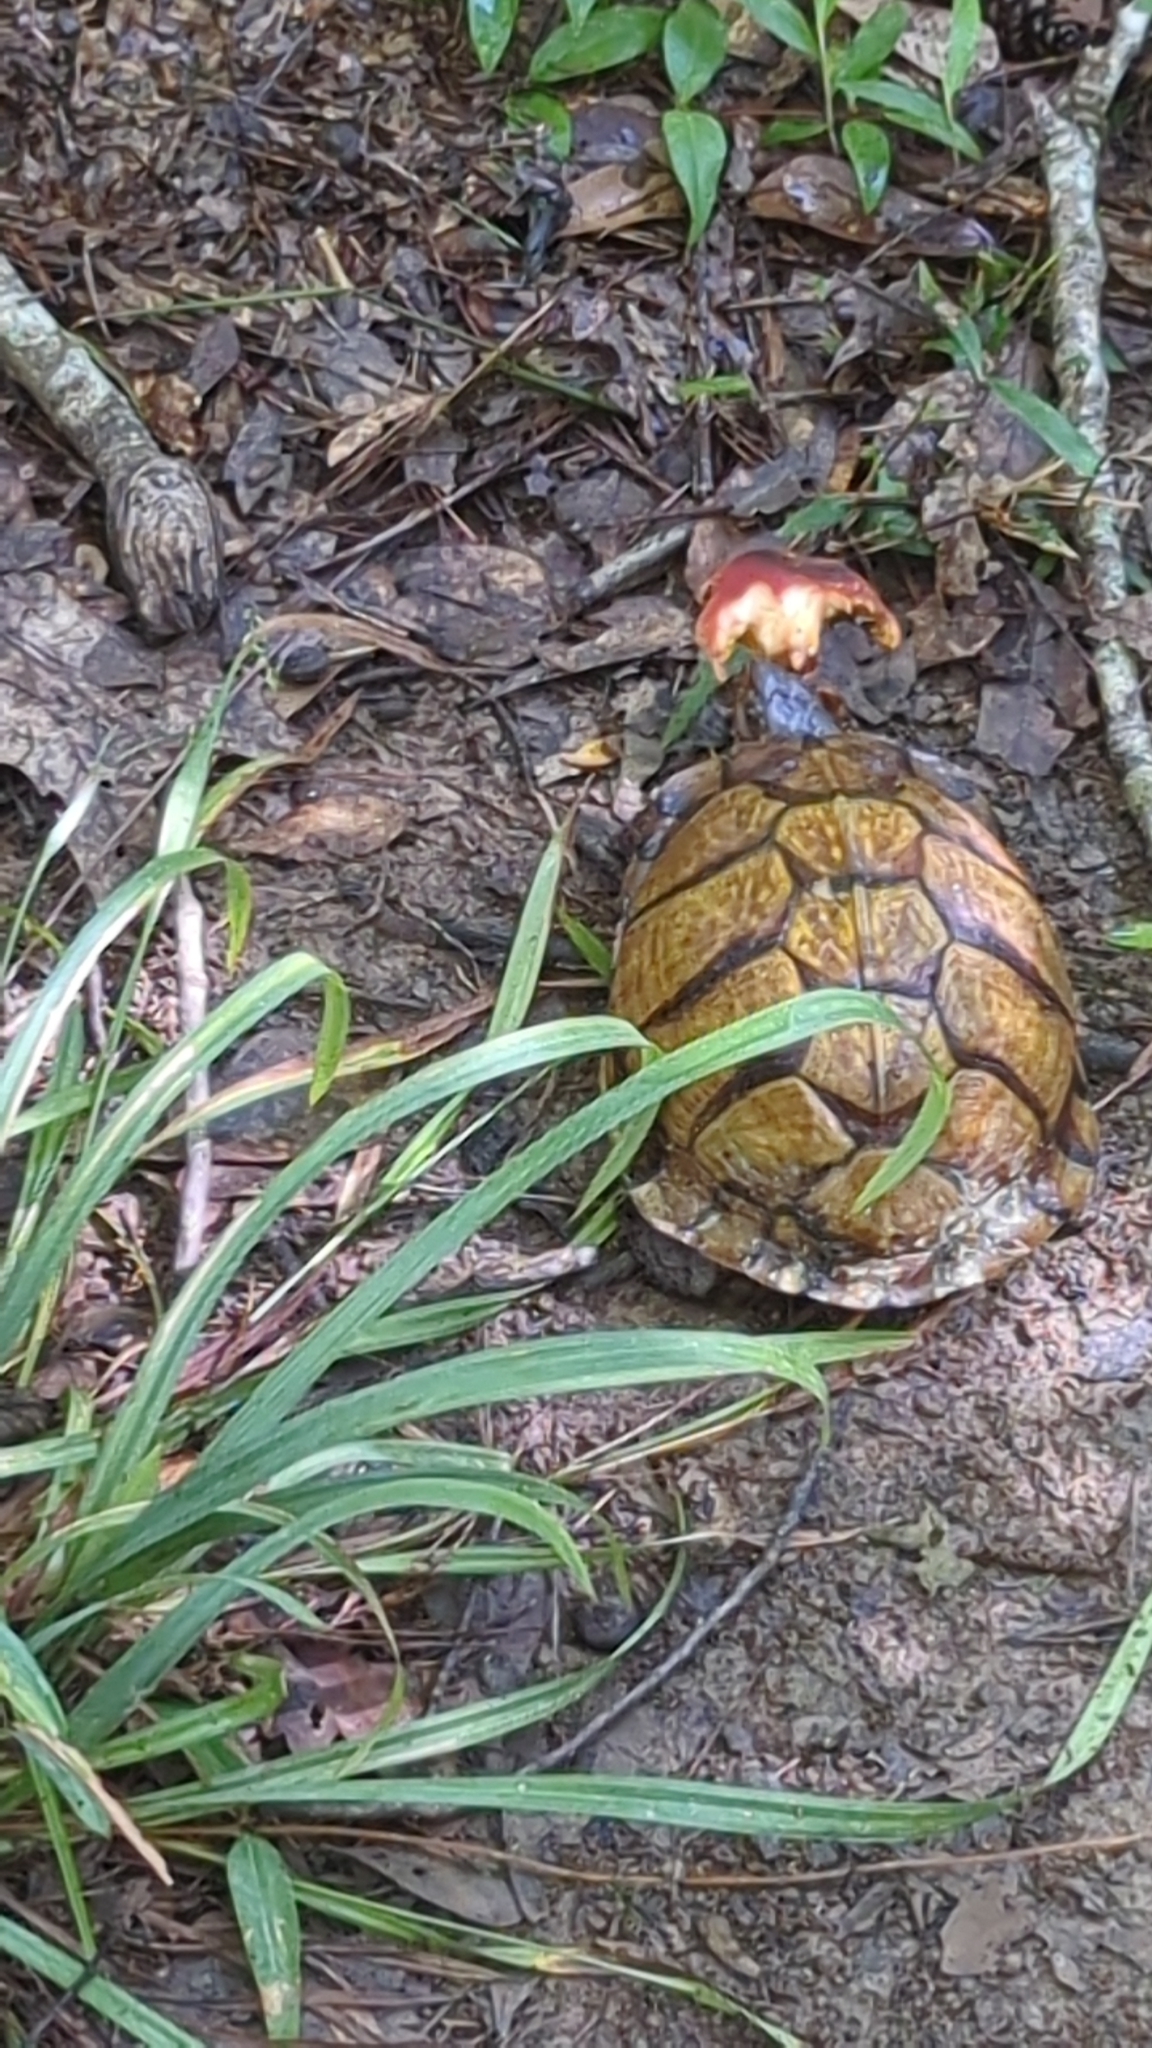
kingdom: Animalia
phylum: Chordata
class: Testudines
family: Emydidae
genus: Terrapene
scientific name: Terrapene carolina
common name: Common box turtle
